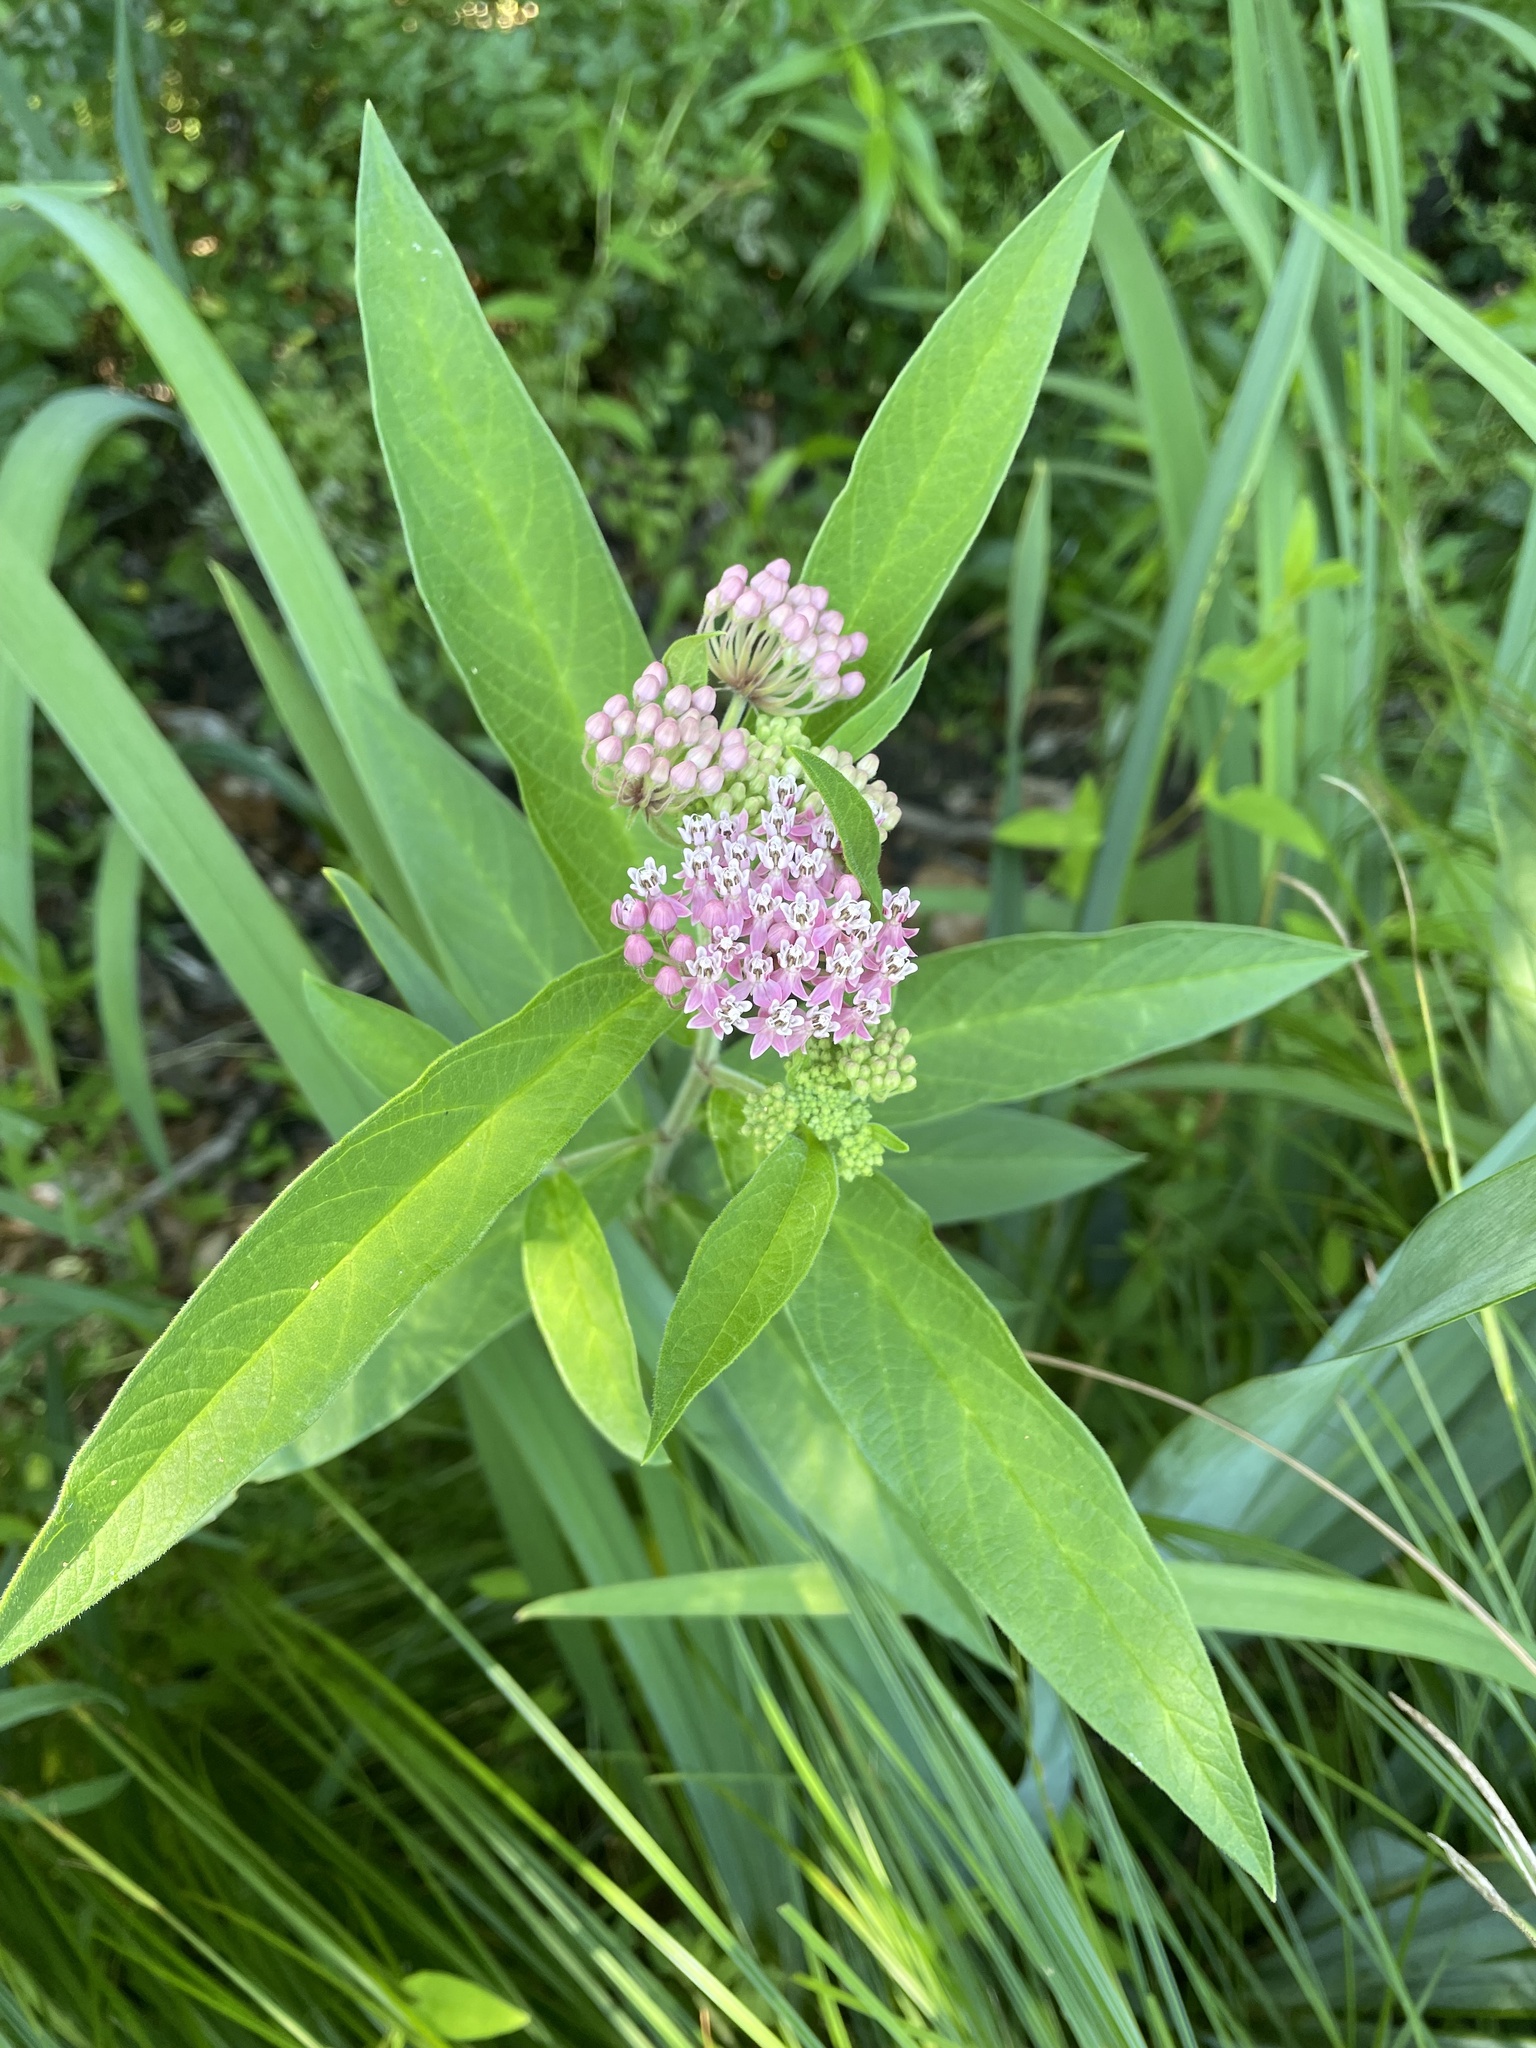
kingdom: Plantae
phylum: Tracheophyta
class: Magnoliopsida
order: Gentianales
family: Apocynaceae
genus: Asclepias
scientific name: Asclepias incarnata
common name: Swamp milkweed
